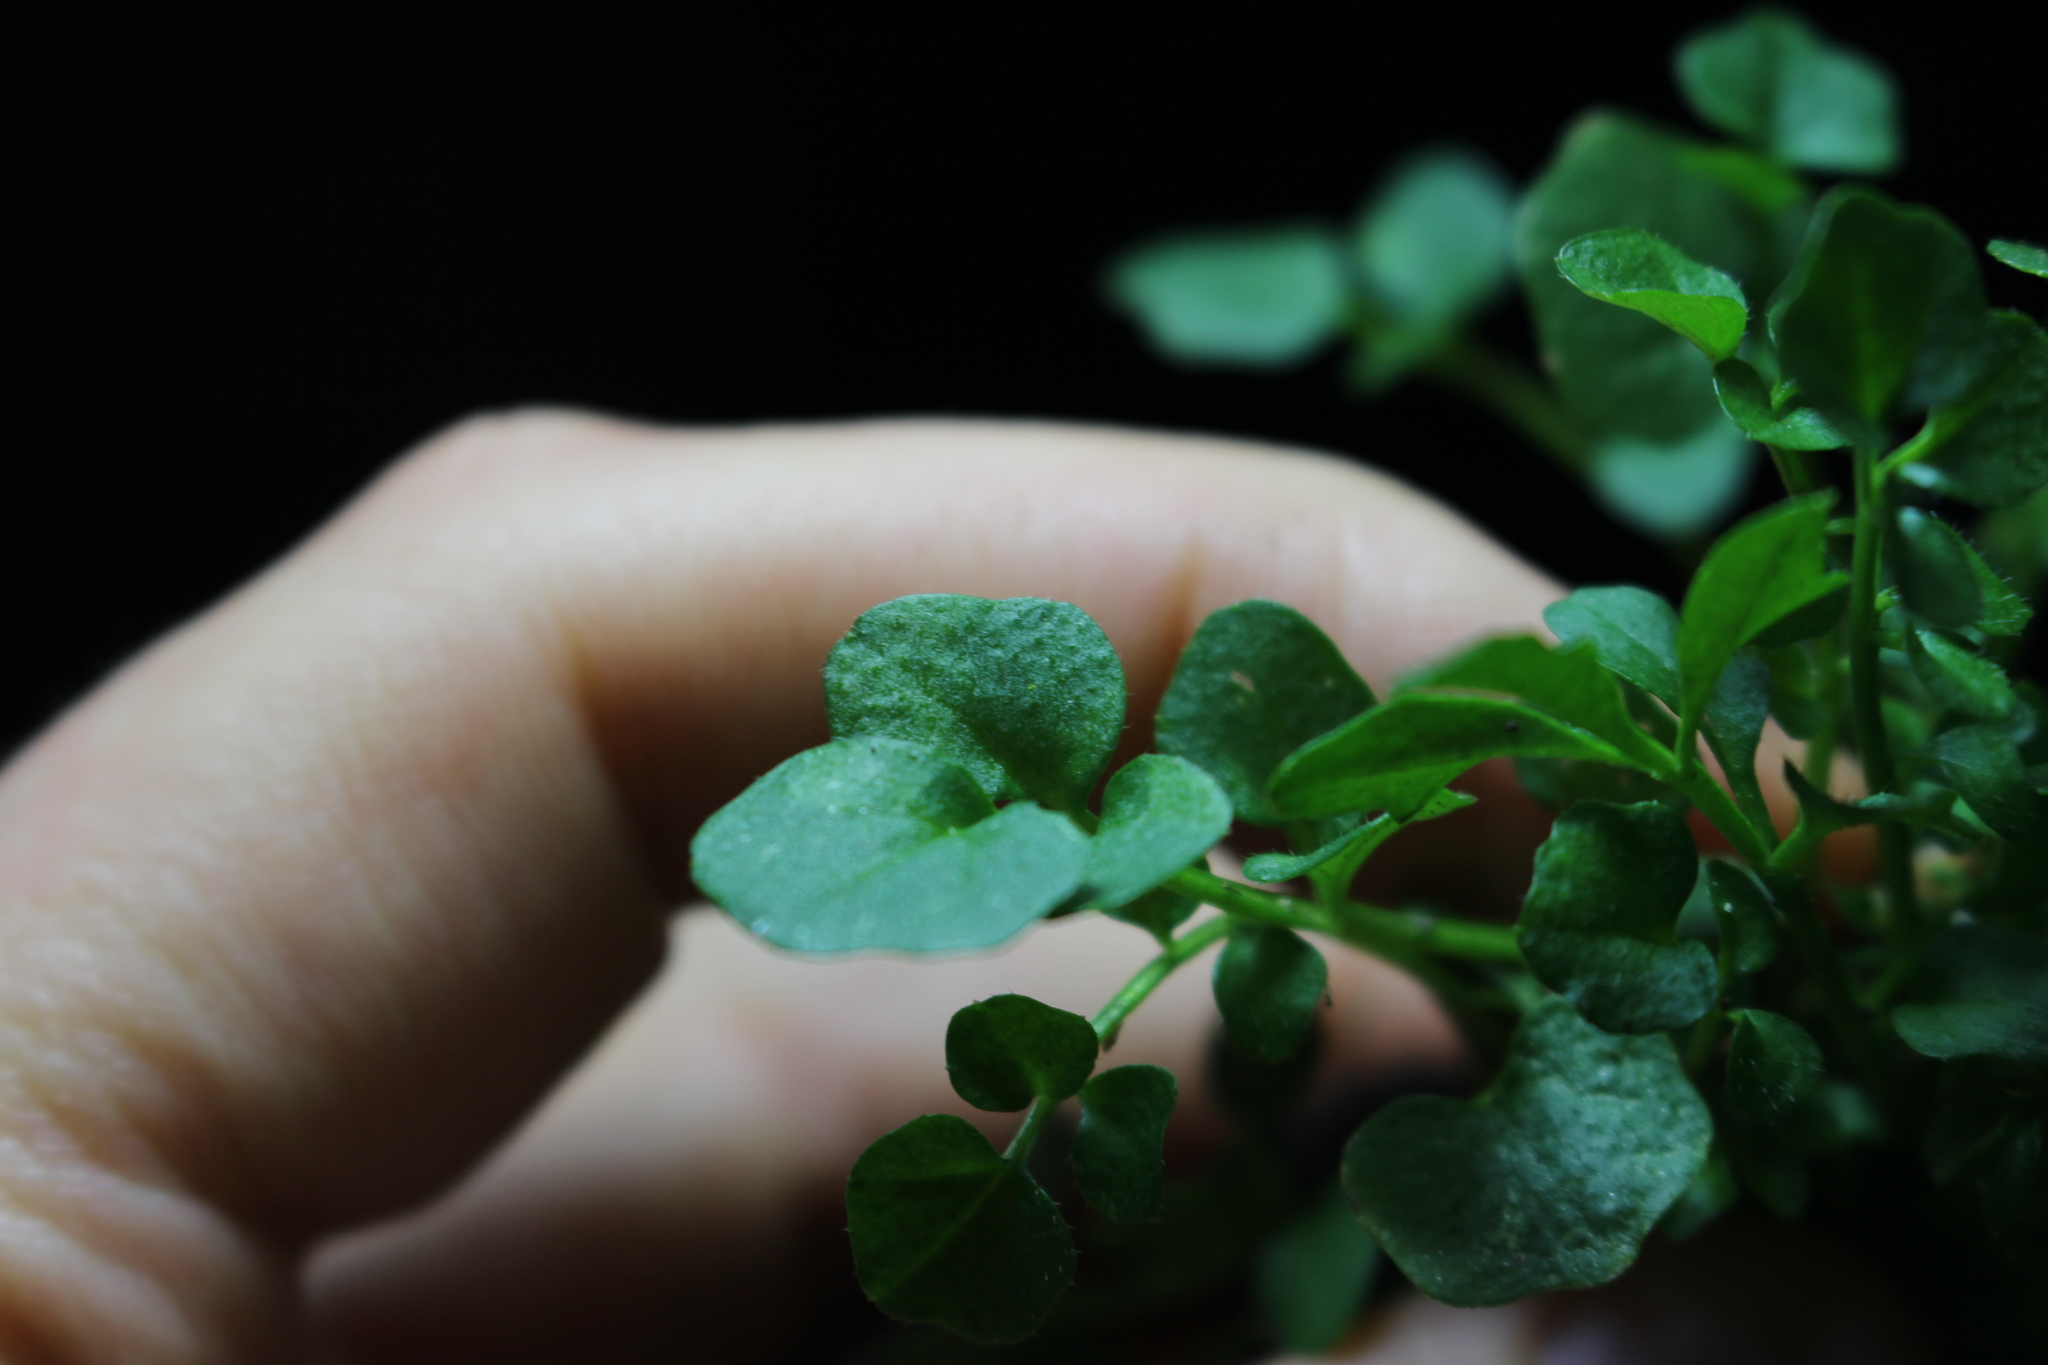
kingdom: Plantae
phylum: Tracheophyta
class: Magnoliopsida
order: Brassicales
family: Brassicaceae
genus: Cardamine
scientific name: Cardamine hirsuta
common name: Hairy bittercress
